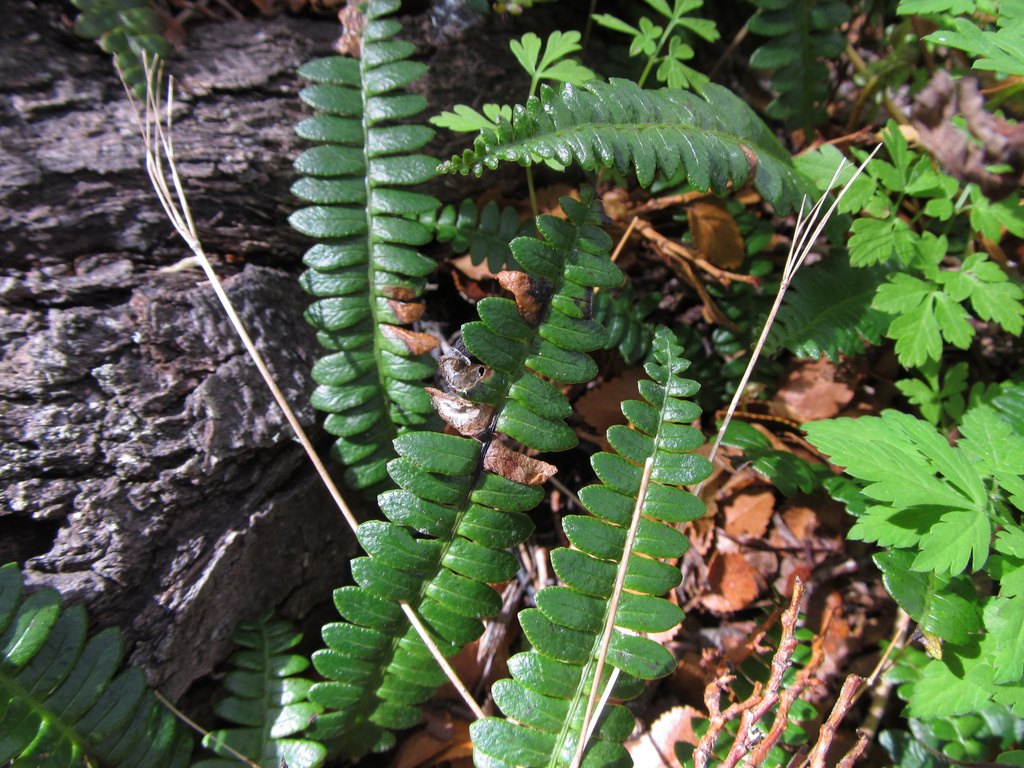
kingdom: Plantae
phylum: Tracheophyta
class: Polypodiopsida
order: Polypodiales
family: Blechnaceae
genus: Austroblechnum
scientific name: Austroblechnum penna-marina
